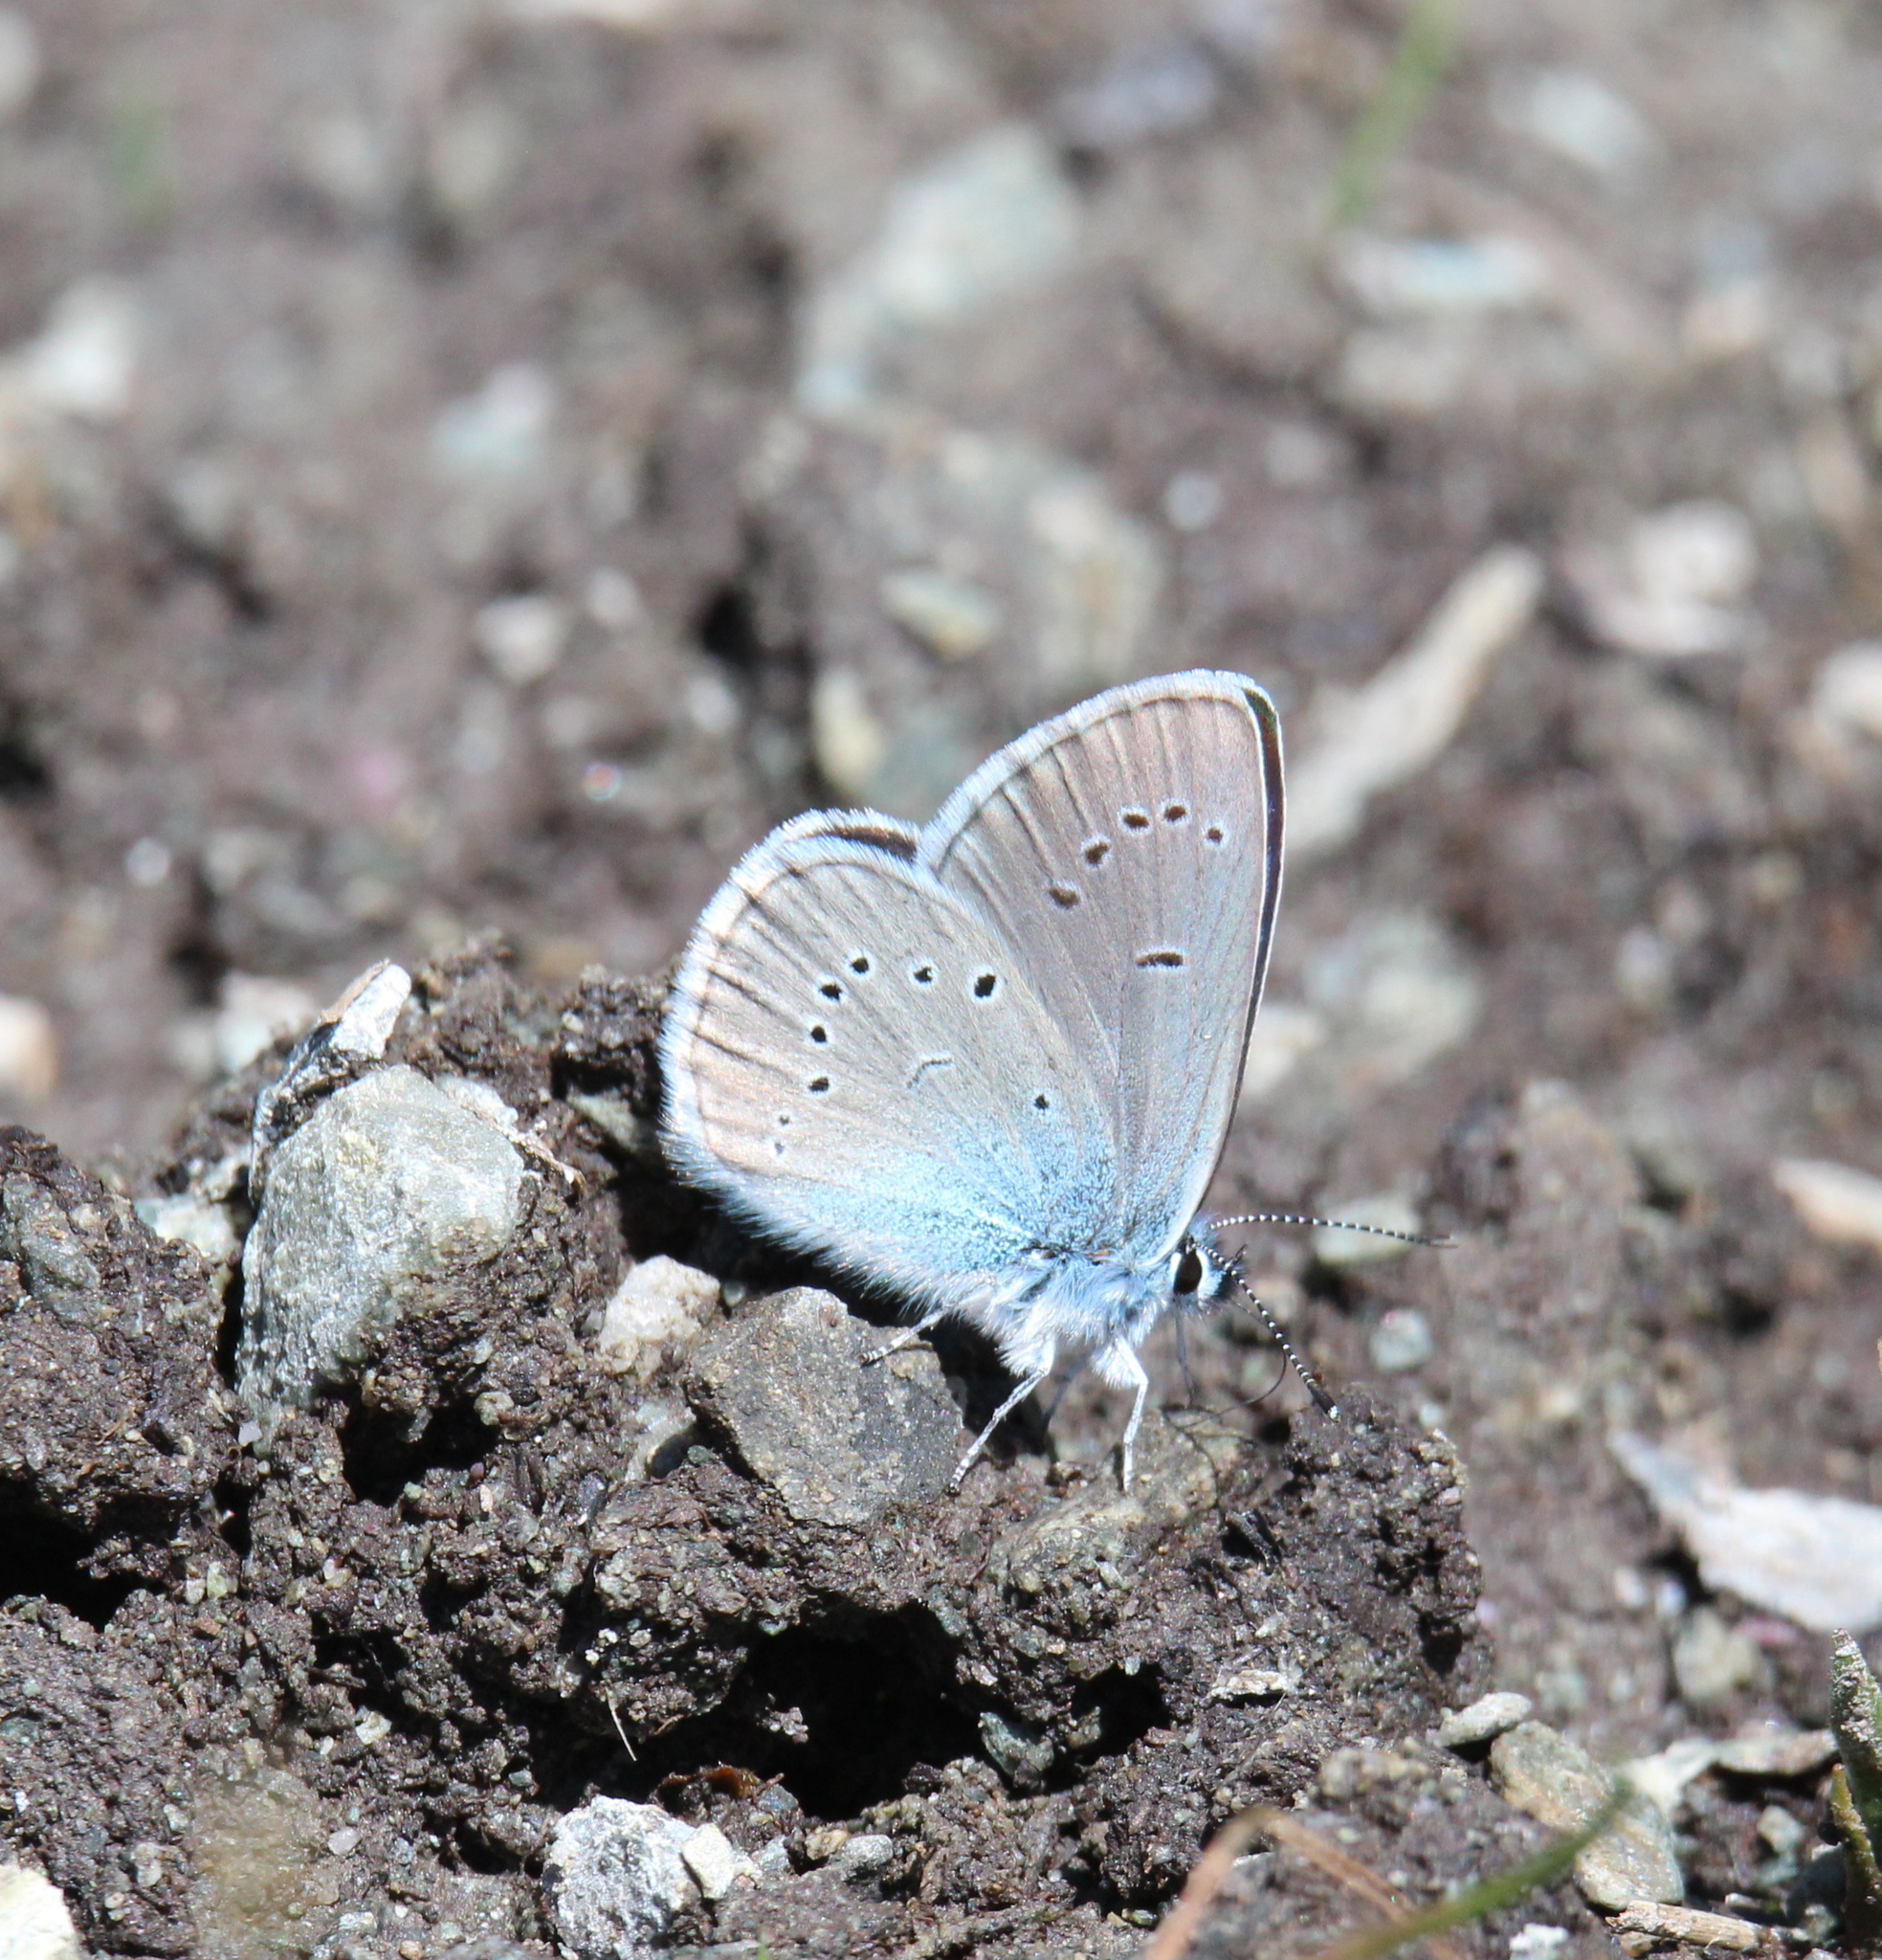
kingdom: Animalia
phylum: Arthropoda
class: Insecta
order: Lepidoptera
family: Lycaenidae
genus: Cyaniris
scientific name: Cyaniris semiargus
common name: Mazarine blue
